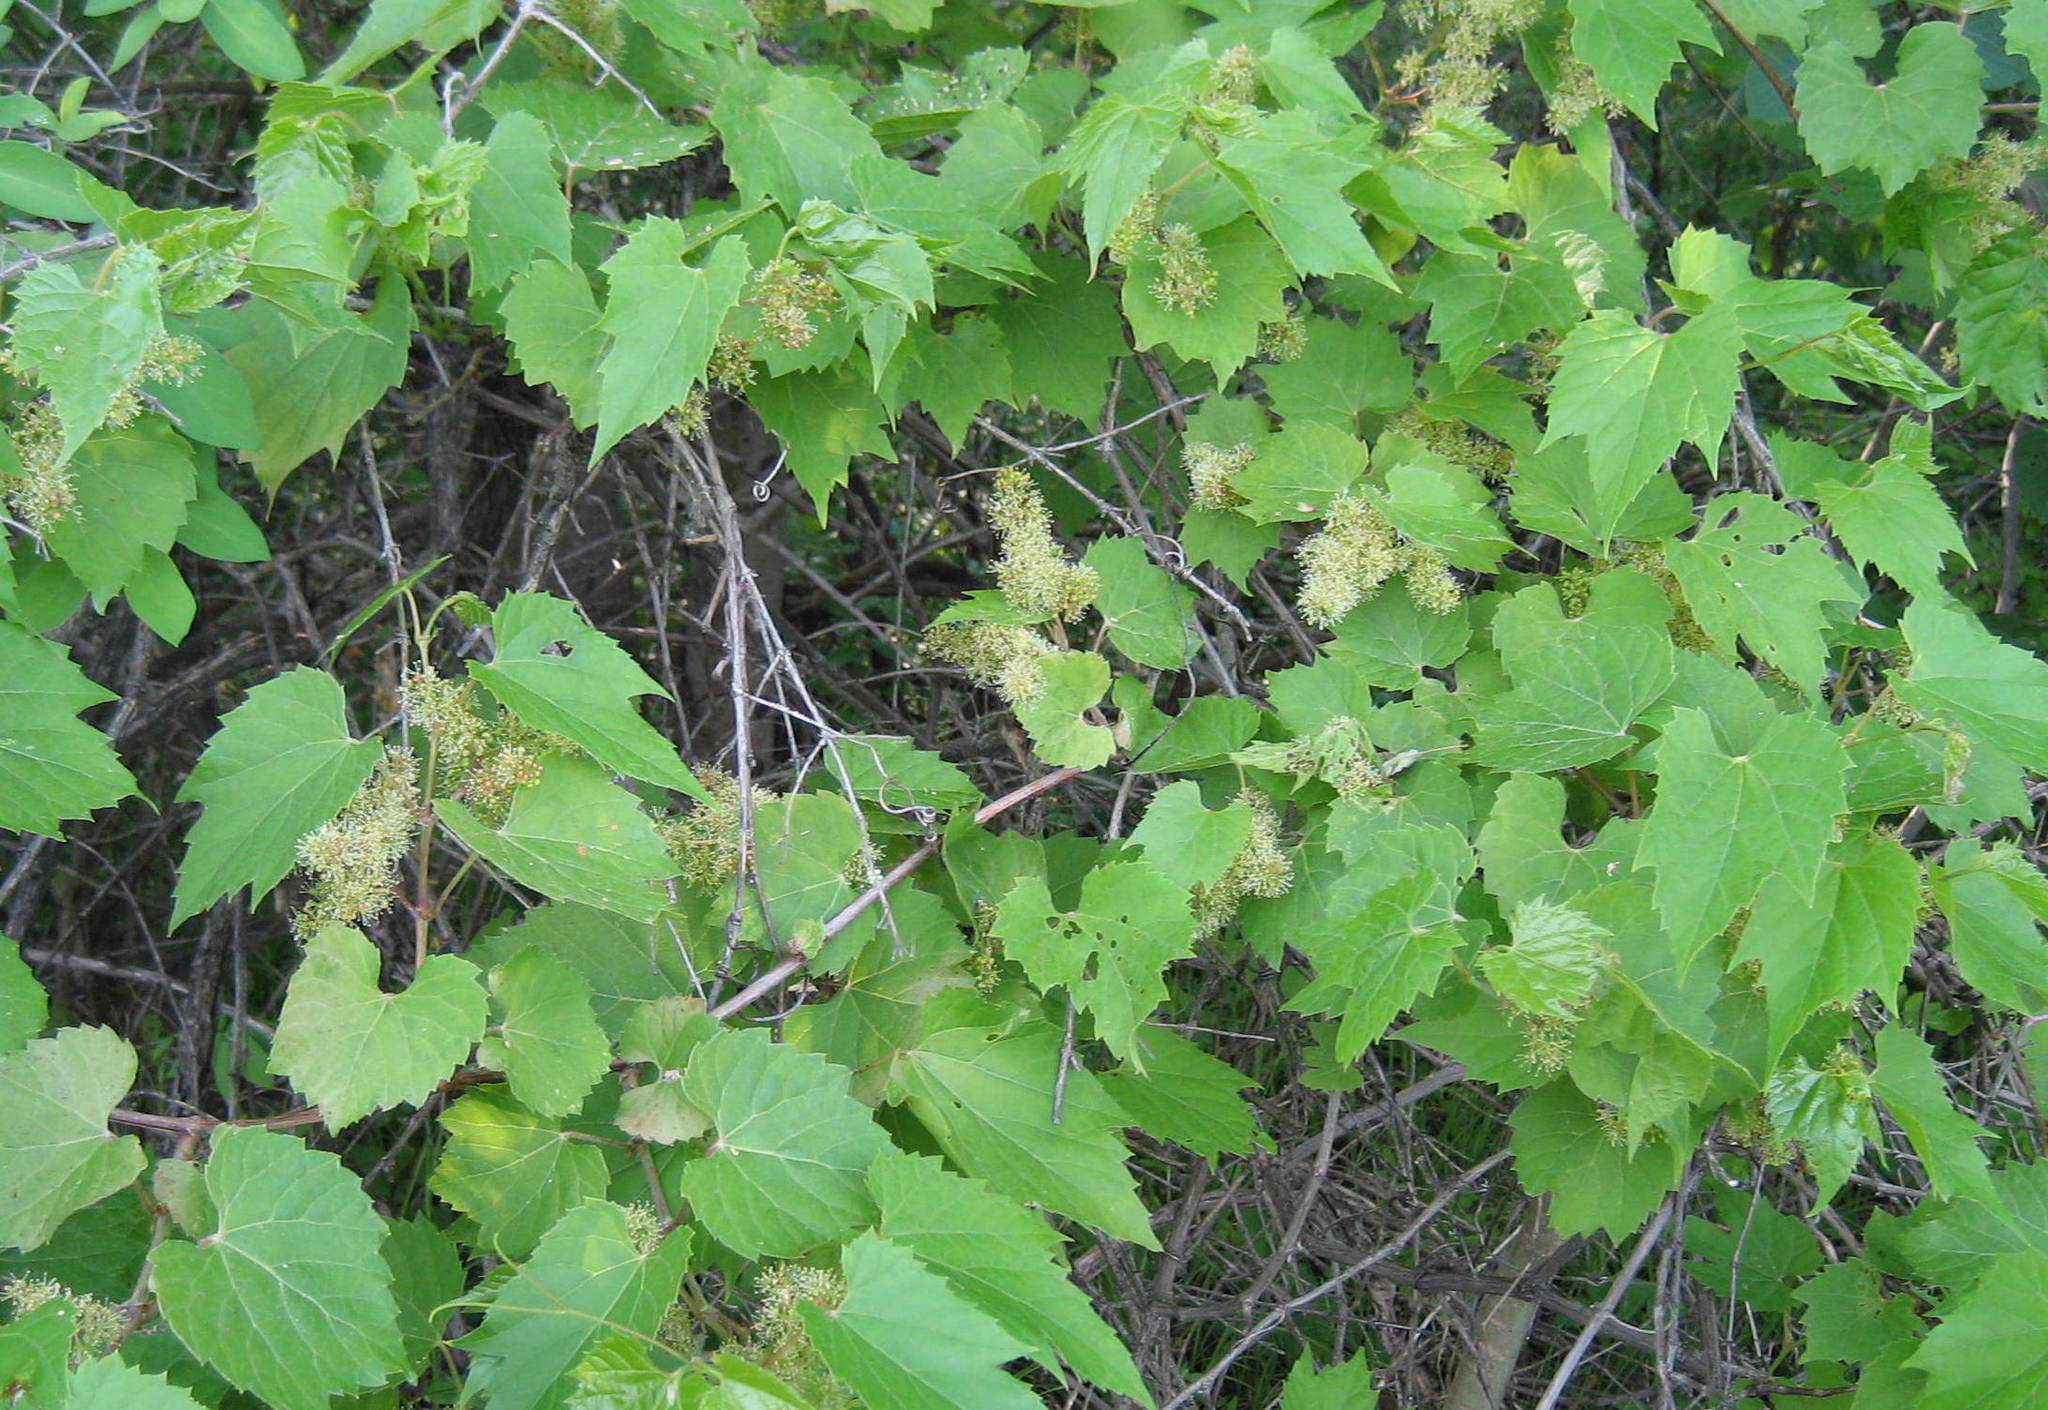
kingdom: Plantae
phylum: Tracheophyta
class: Magnoliopsida
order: Vitales
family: Vitaceae
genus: Vitis
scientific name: Vitis riparia
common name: Frost grape
